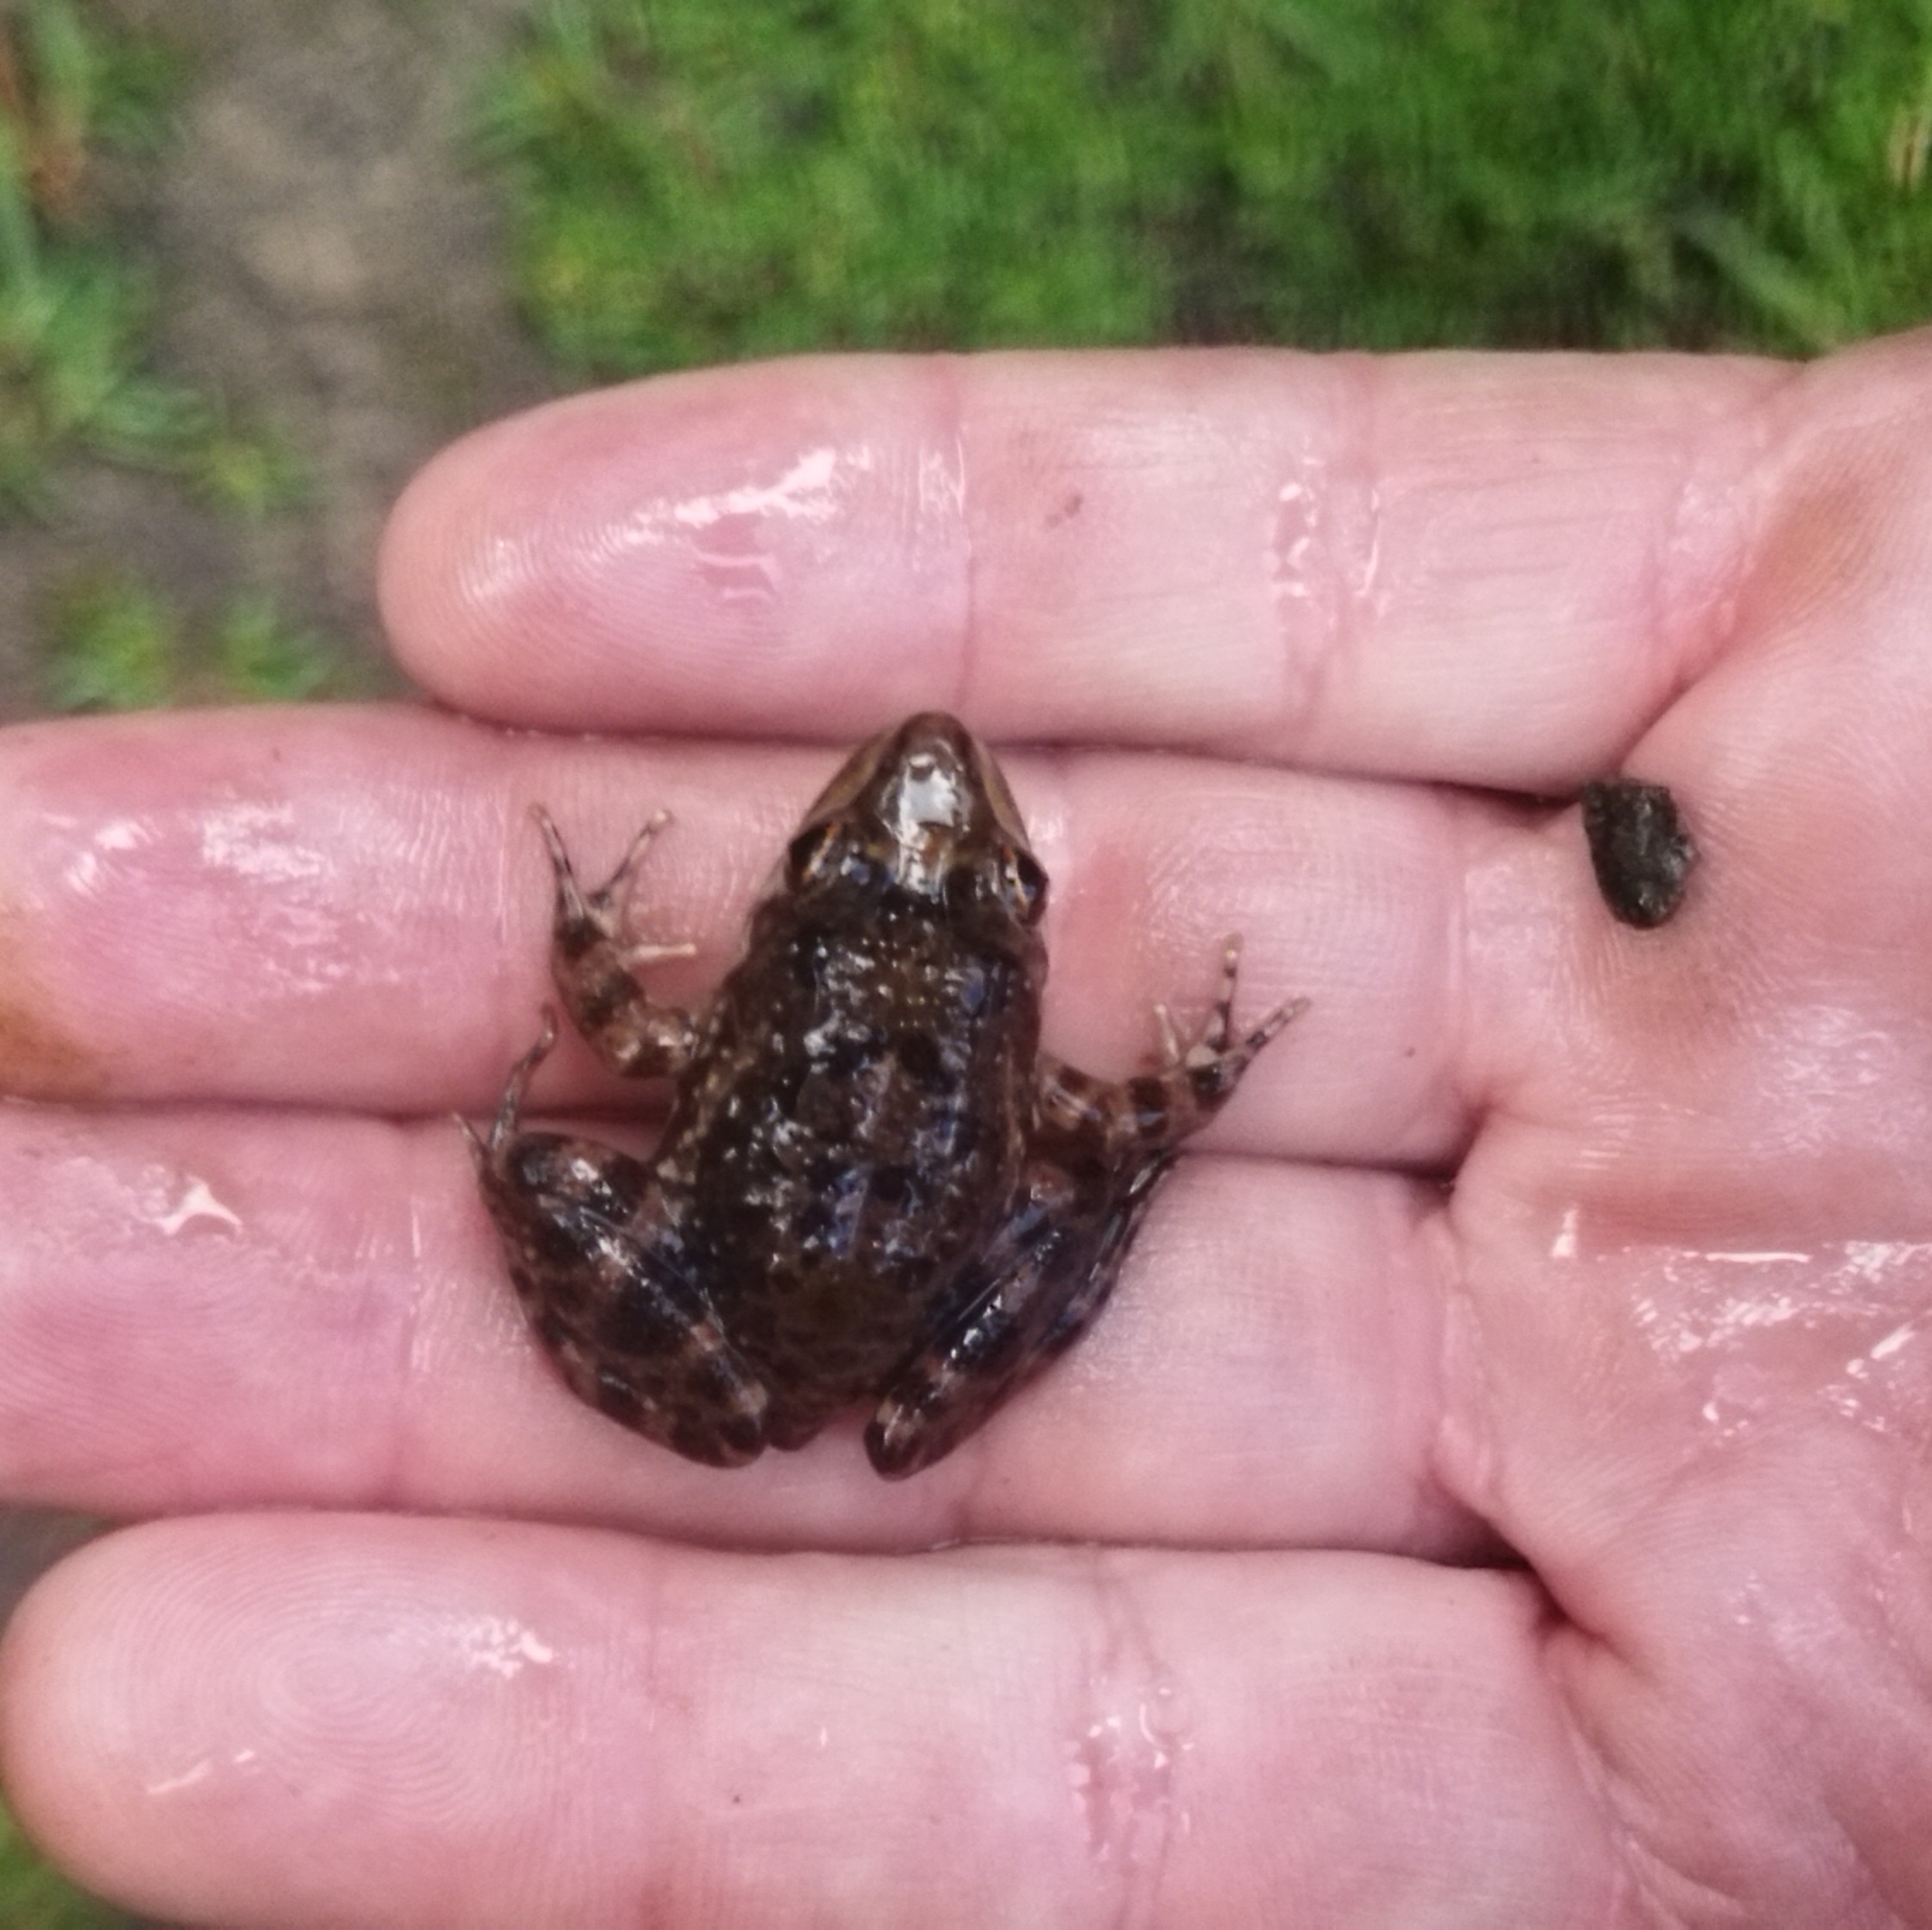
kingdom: Animalia
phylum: Chordata
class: Amphibia
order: Anura
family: Pyxicephalidae
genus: Amietia
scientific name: Amietia fuscigula
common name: Cape rana
